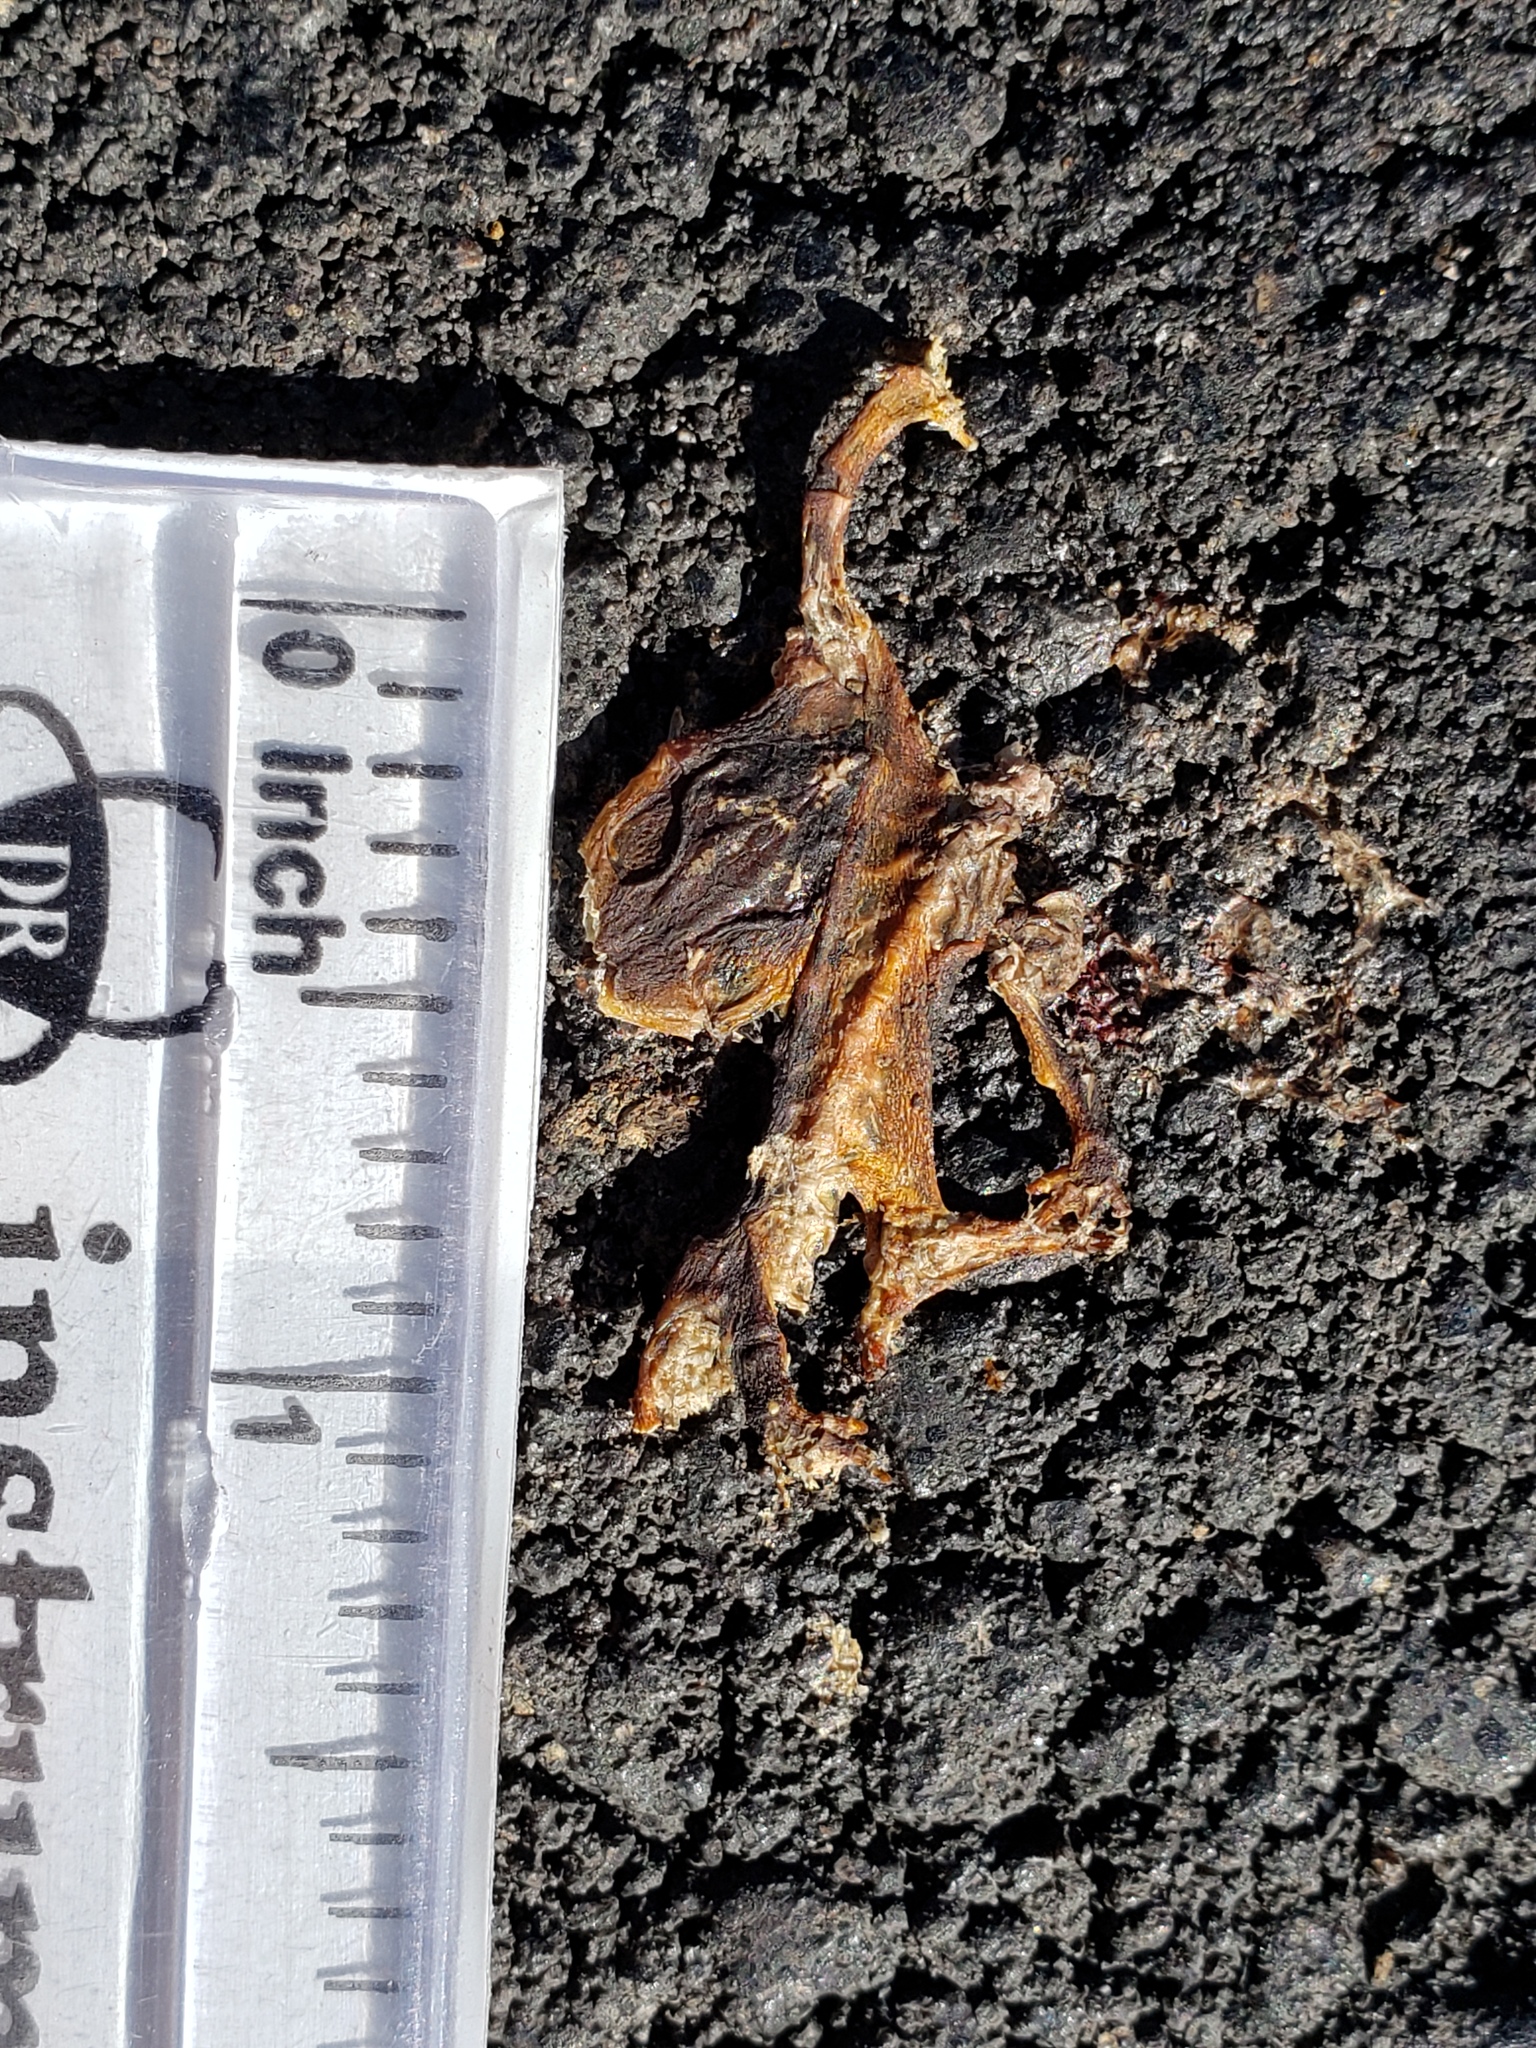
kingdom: Animalia
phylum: Chordata
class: Amphibia
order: Caudata
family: Salamandridae
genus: Taricha
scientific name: Taricha
